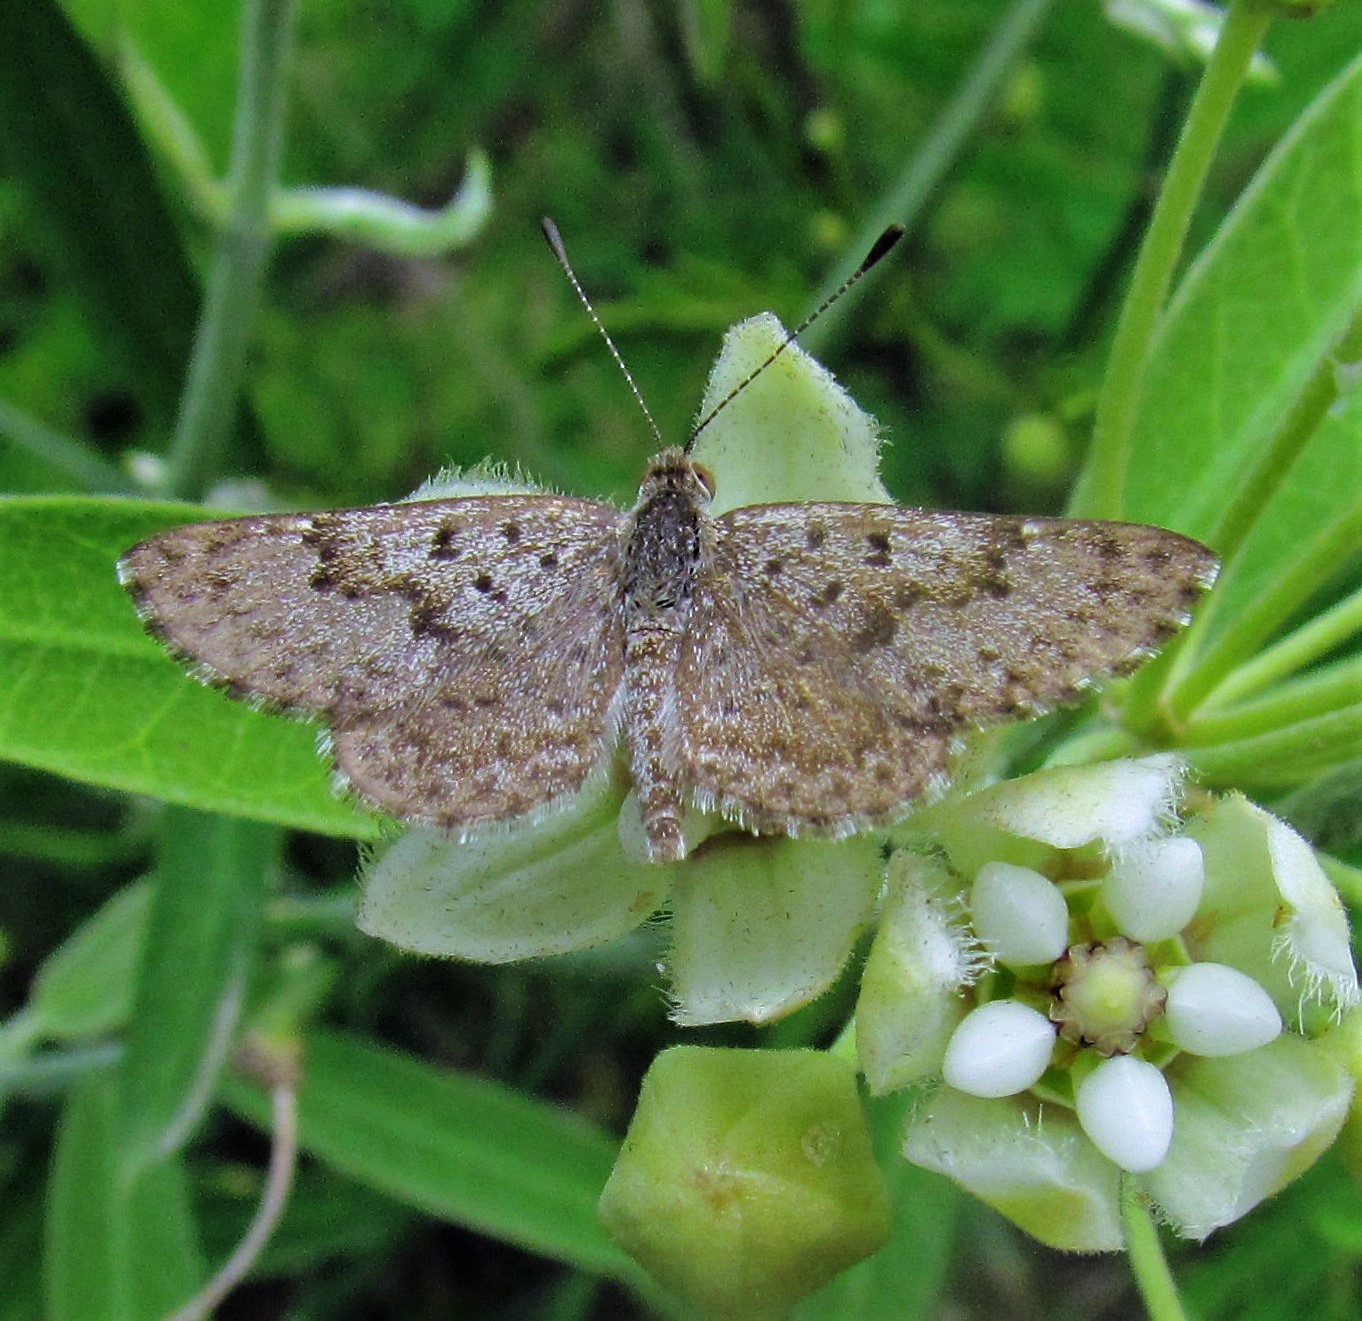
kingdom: Animalia
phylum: Arthropoda
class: Insecta
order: Lepidoptera
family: Riodinidae
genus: Zabuella
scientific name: Zabuella tenellus
